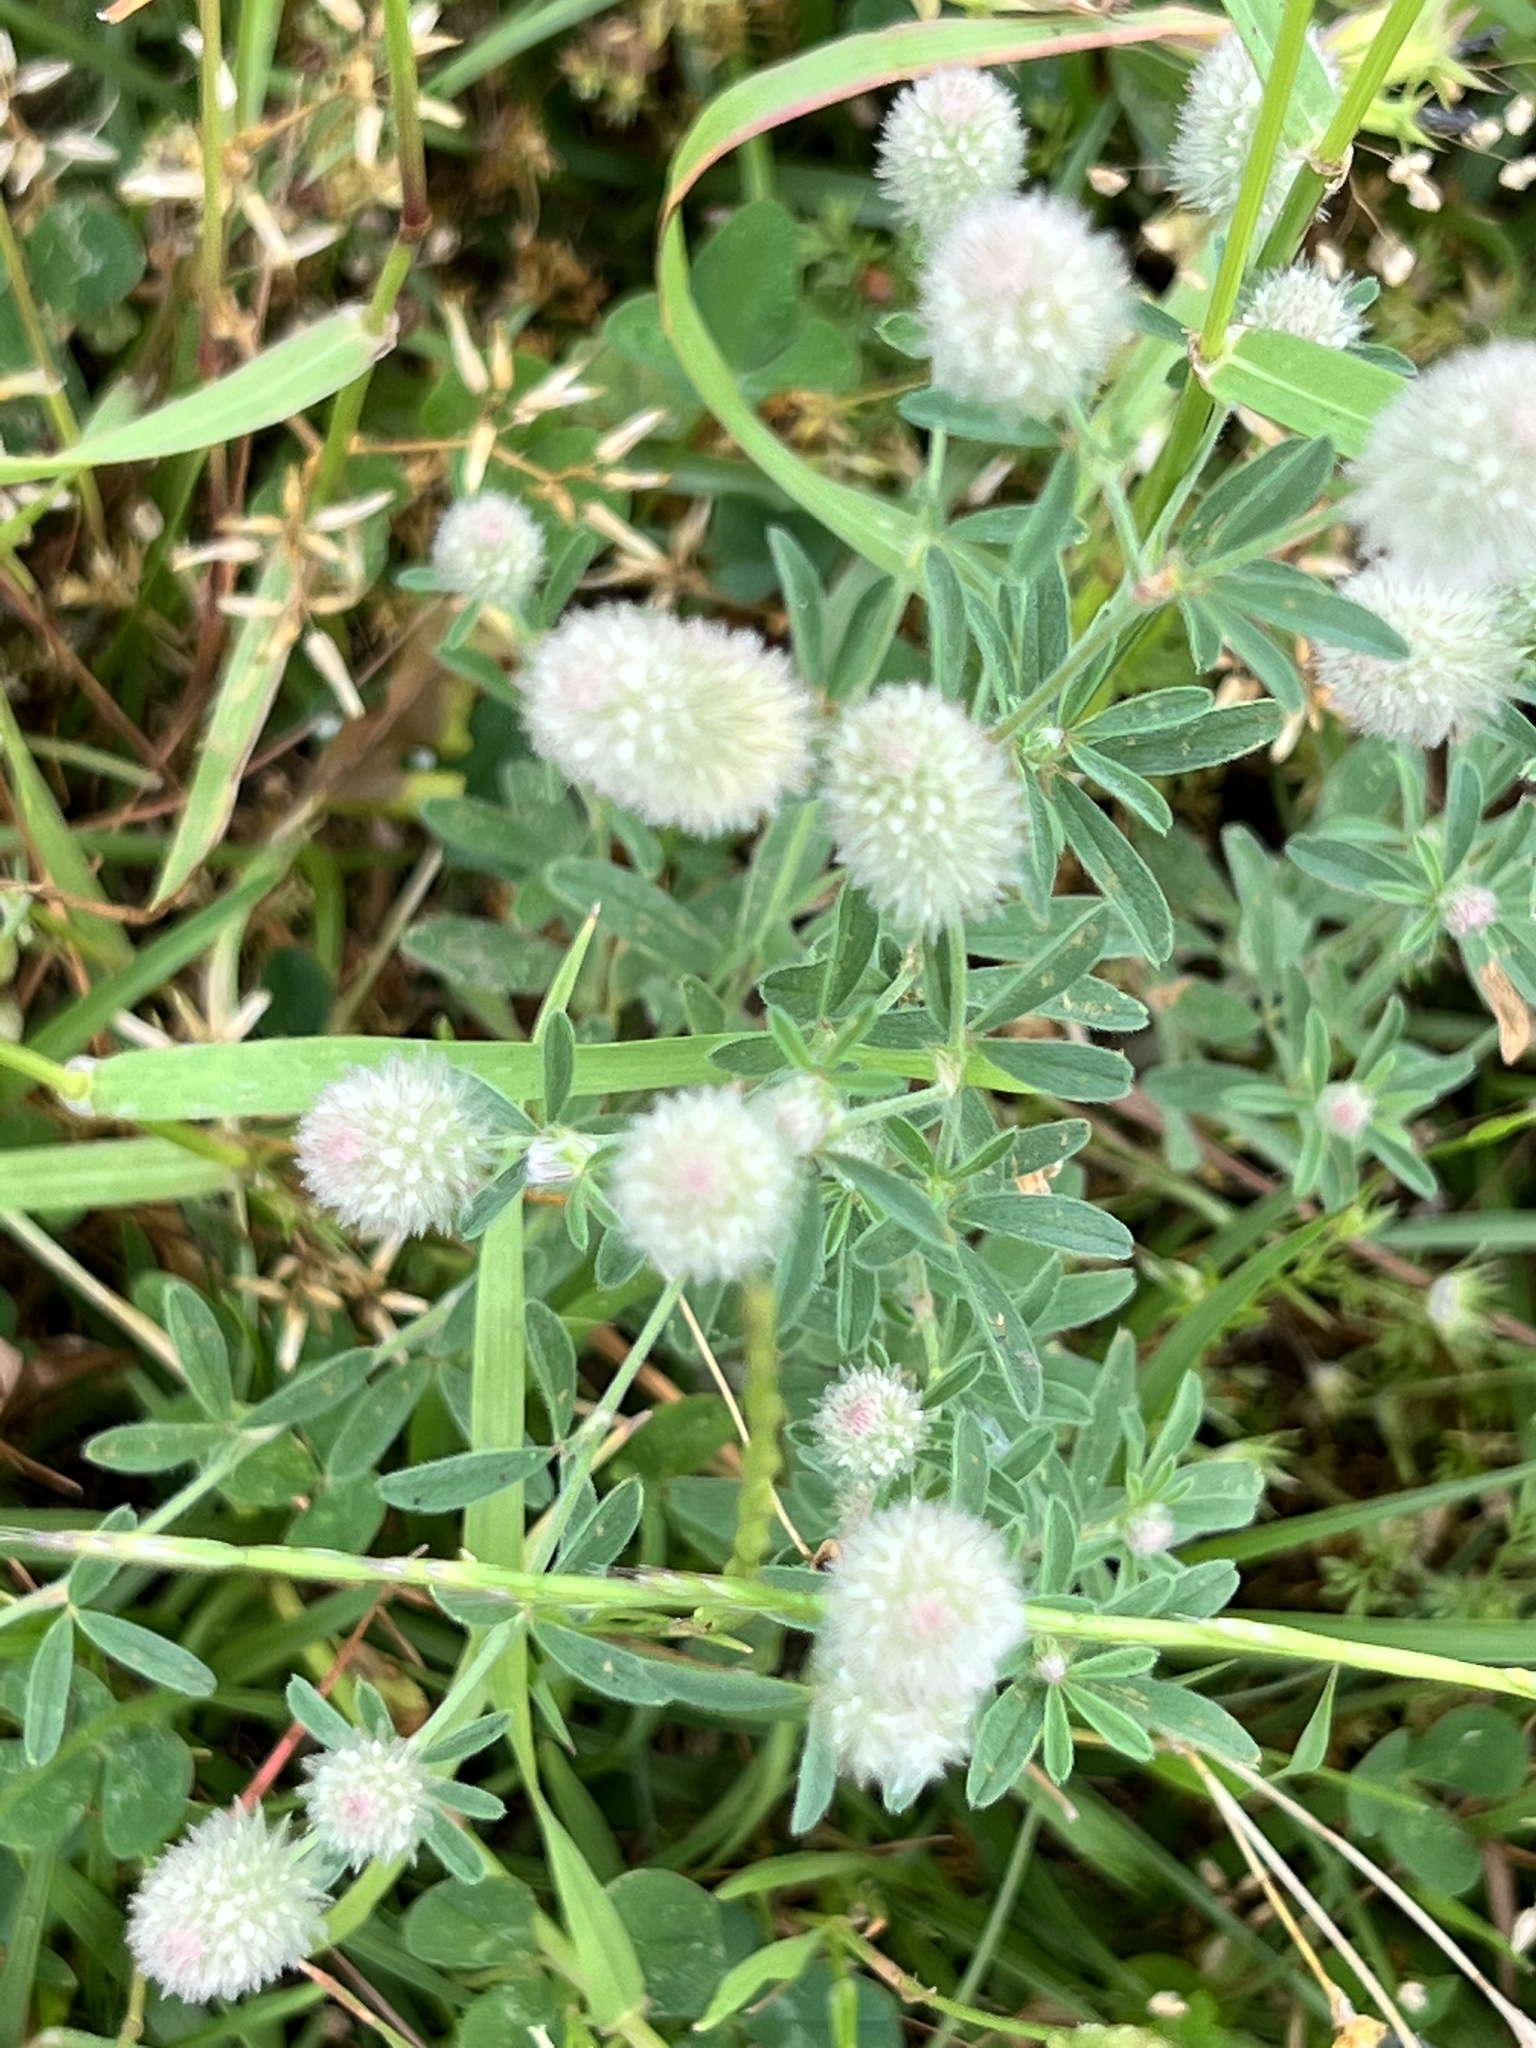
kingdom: Plantae
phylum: Tracheophyta
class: Magnoliopsida
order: Fabales
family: Fabaceae
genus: Trifolium
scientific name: Trifolium arvense
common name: Hare's-foot clover
